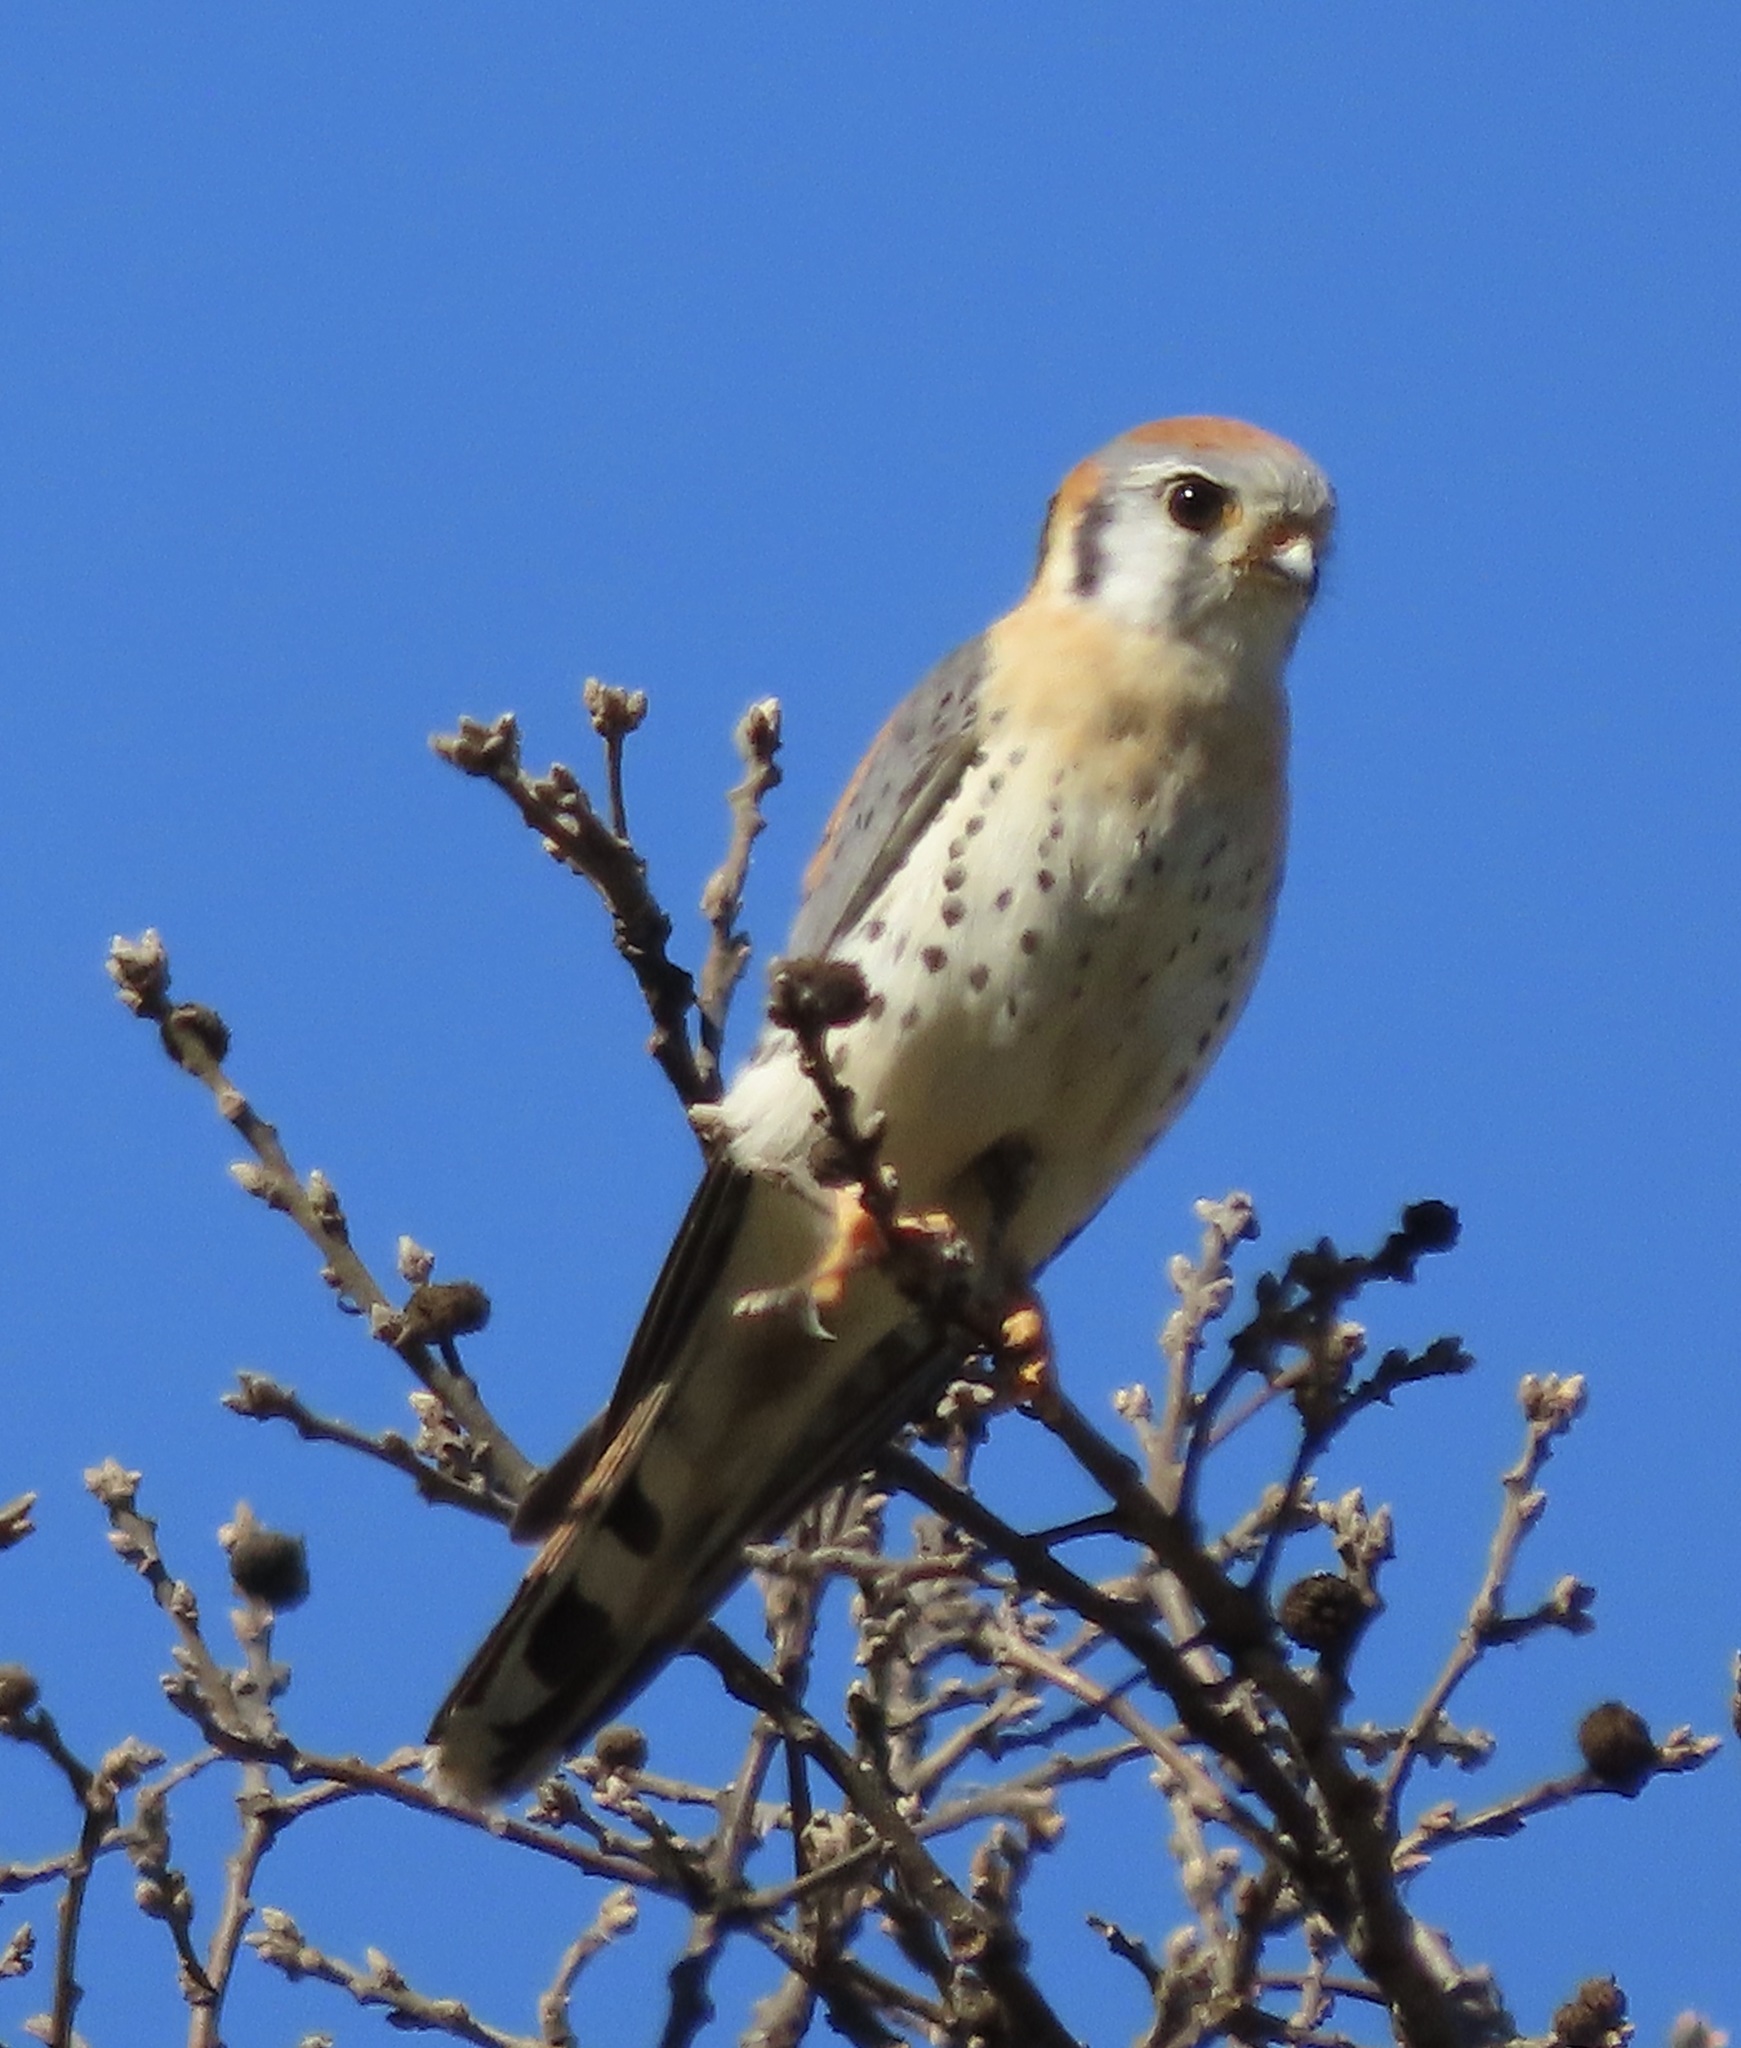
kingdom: Animalia
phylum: Chordata
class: Aves
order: Falconiformes
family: Falconidae
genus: Falco
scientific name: Falco sparverius
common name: American kestrel
